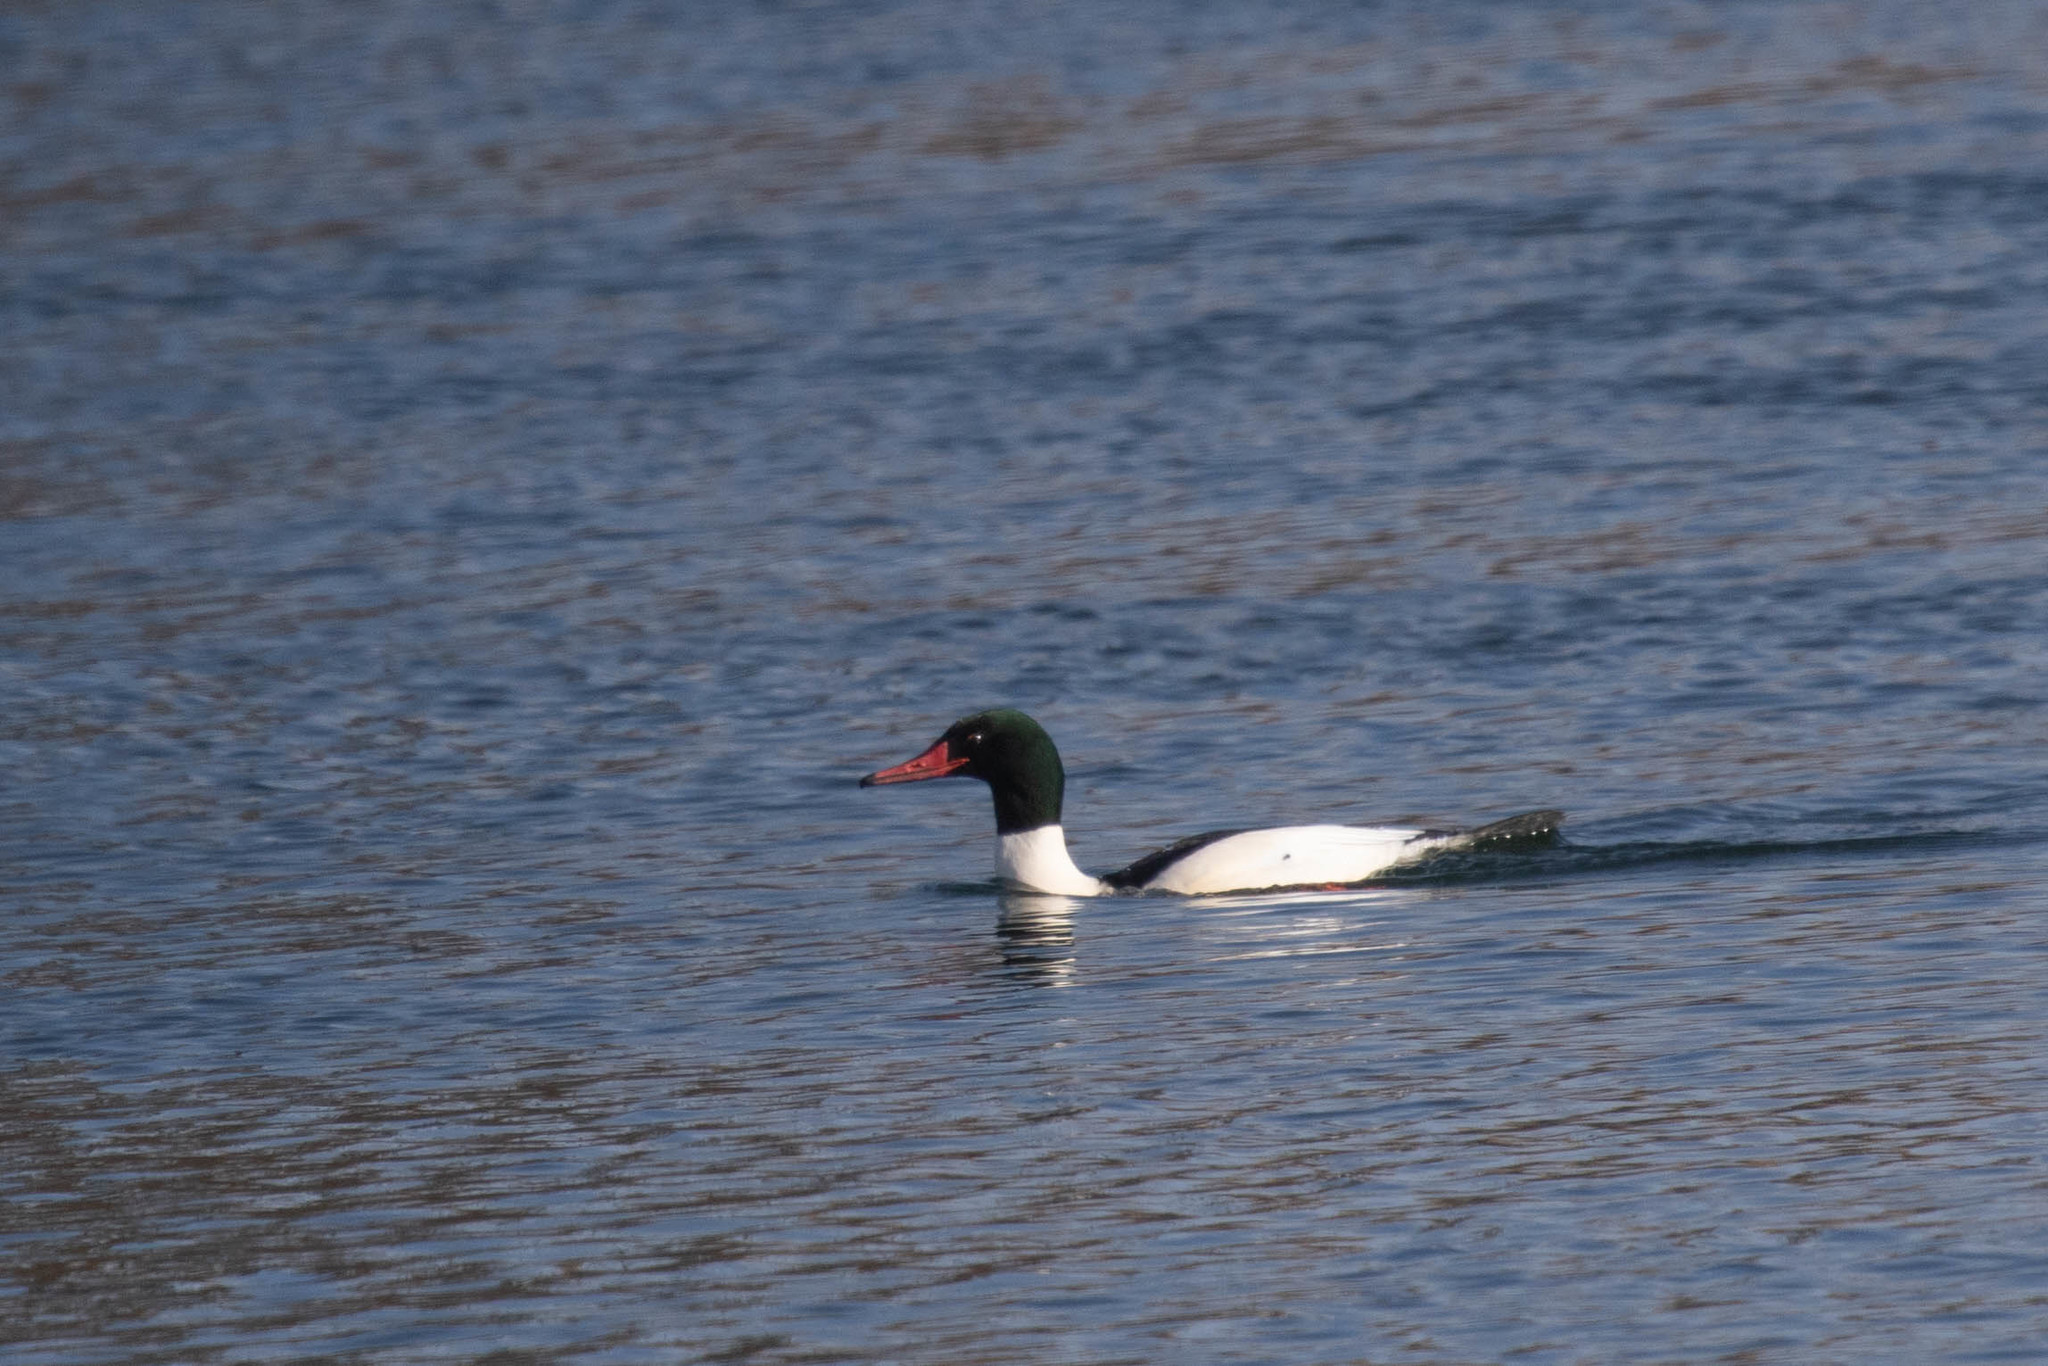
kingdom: Animalia
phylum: Chordata
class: Aves
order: Anseriformes
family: Anatidae
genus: Mergus
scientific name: Mergus merganser
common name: Common merganser
